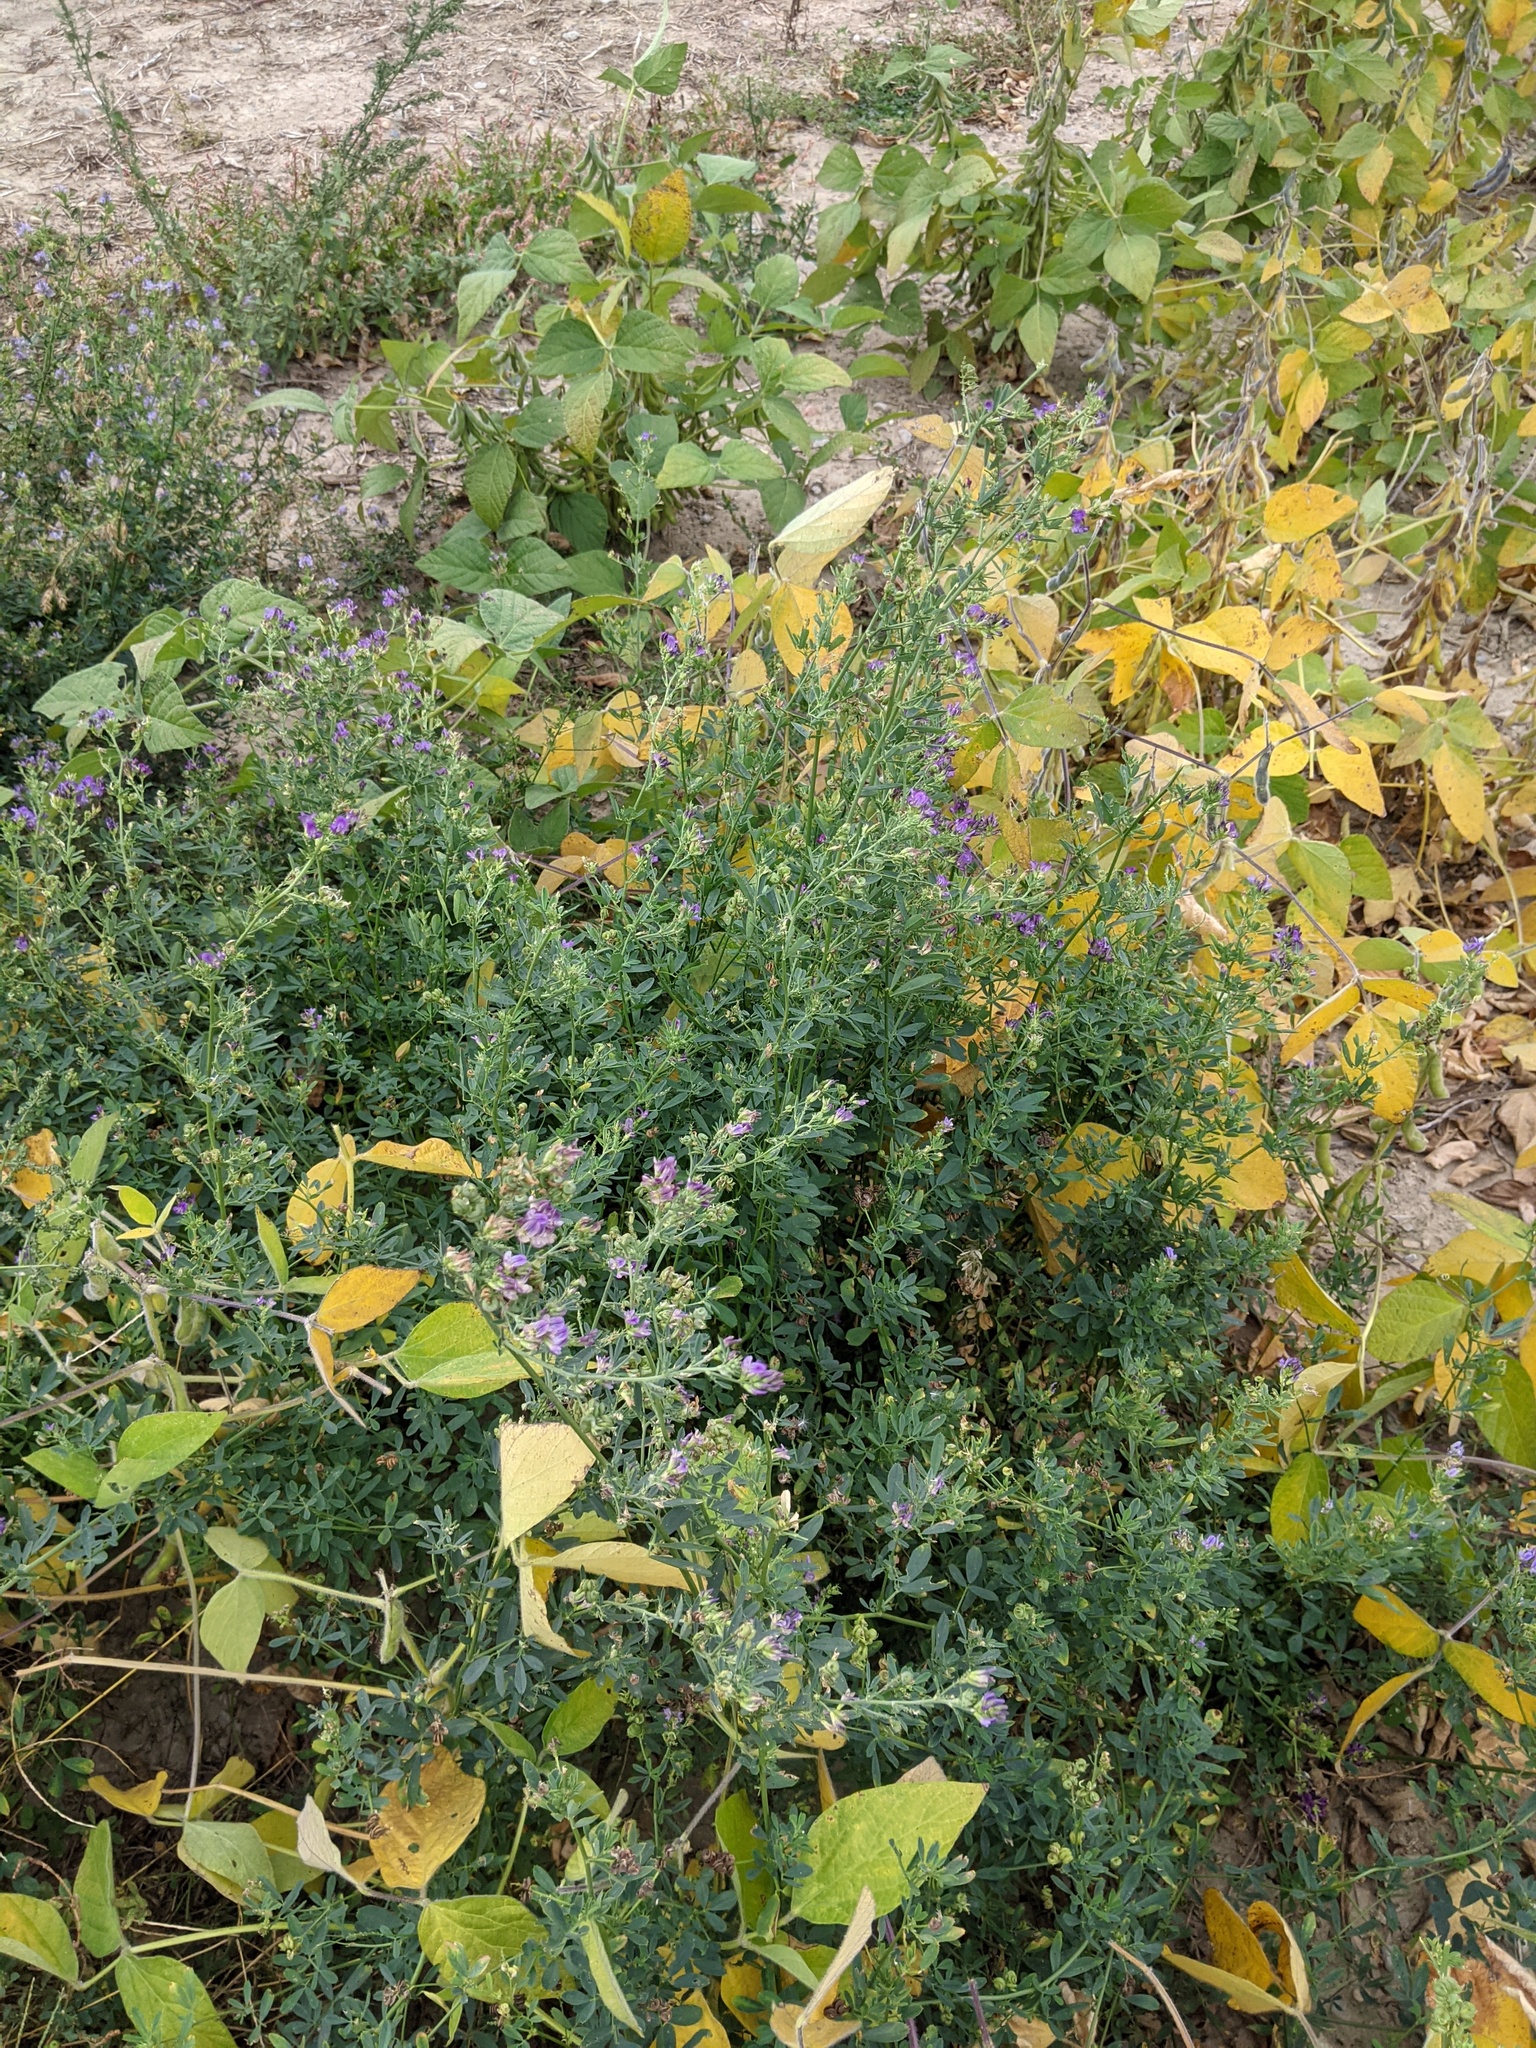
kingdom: Plantae
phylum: Tracheophyta
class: Magnoliopsida
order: Fabales
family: Fabaceae
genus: Medicago
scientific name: Medicago sativa
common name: Alfalfa
